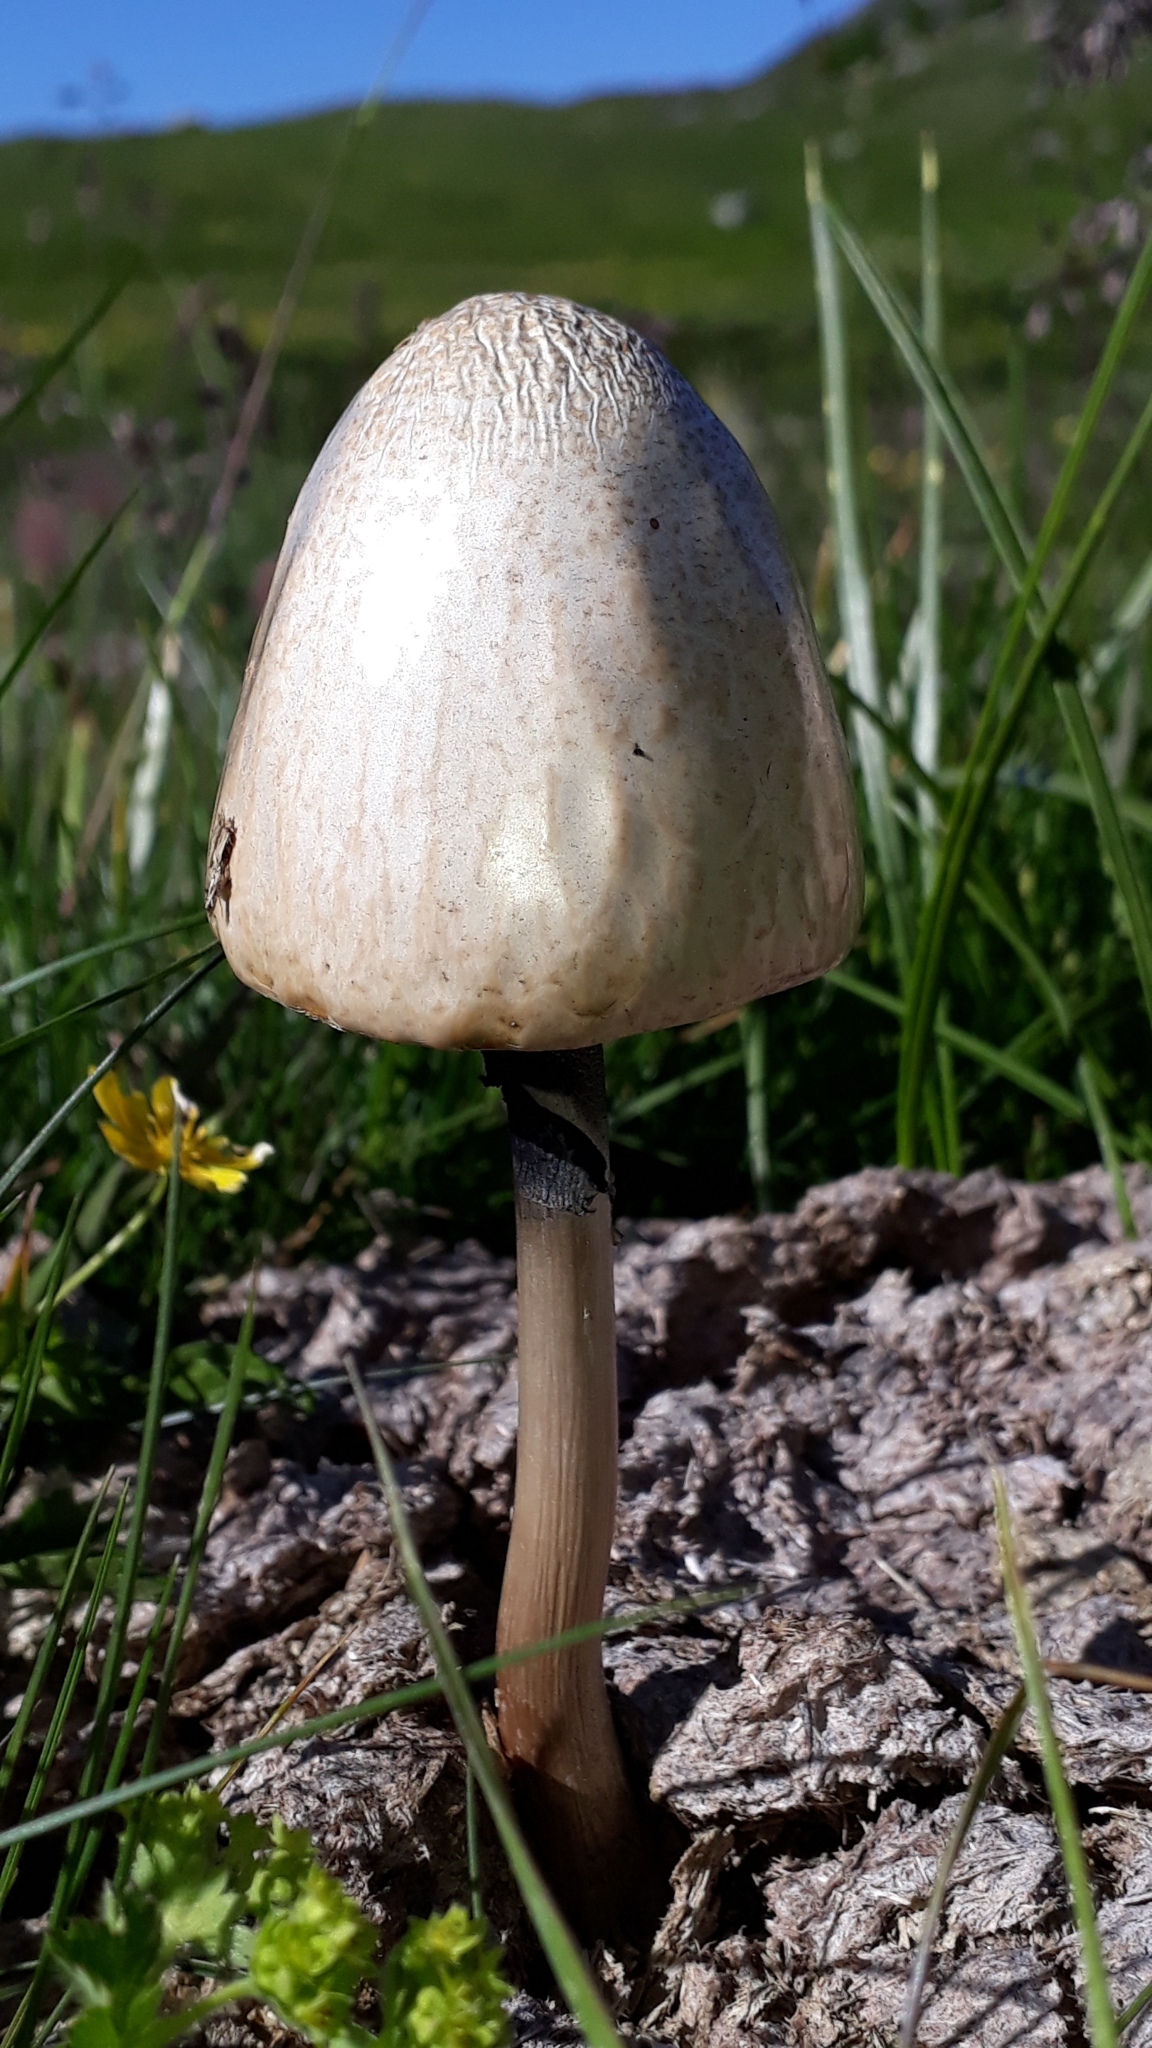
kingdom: Fungi
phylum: Basidiomycota
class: Agaricomycetes
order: Agaricales
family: Bolbitiaceae
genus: Panaeolus
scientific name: Panaeolus semiovatus
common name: Shiny mottlegill
